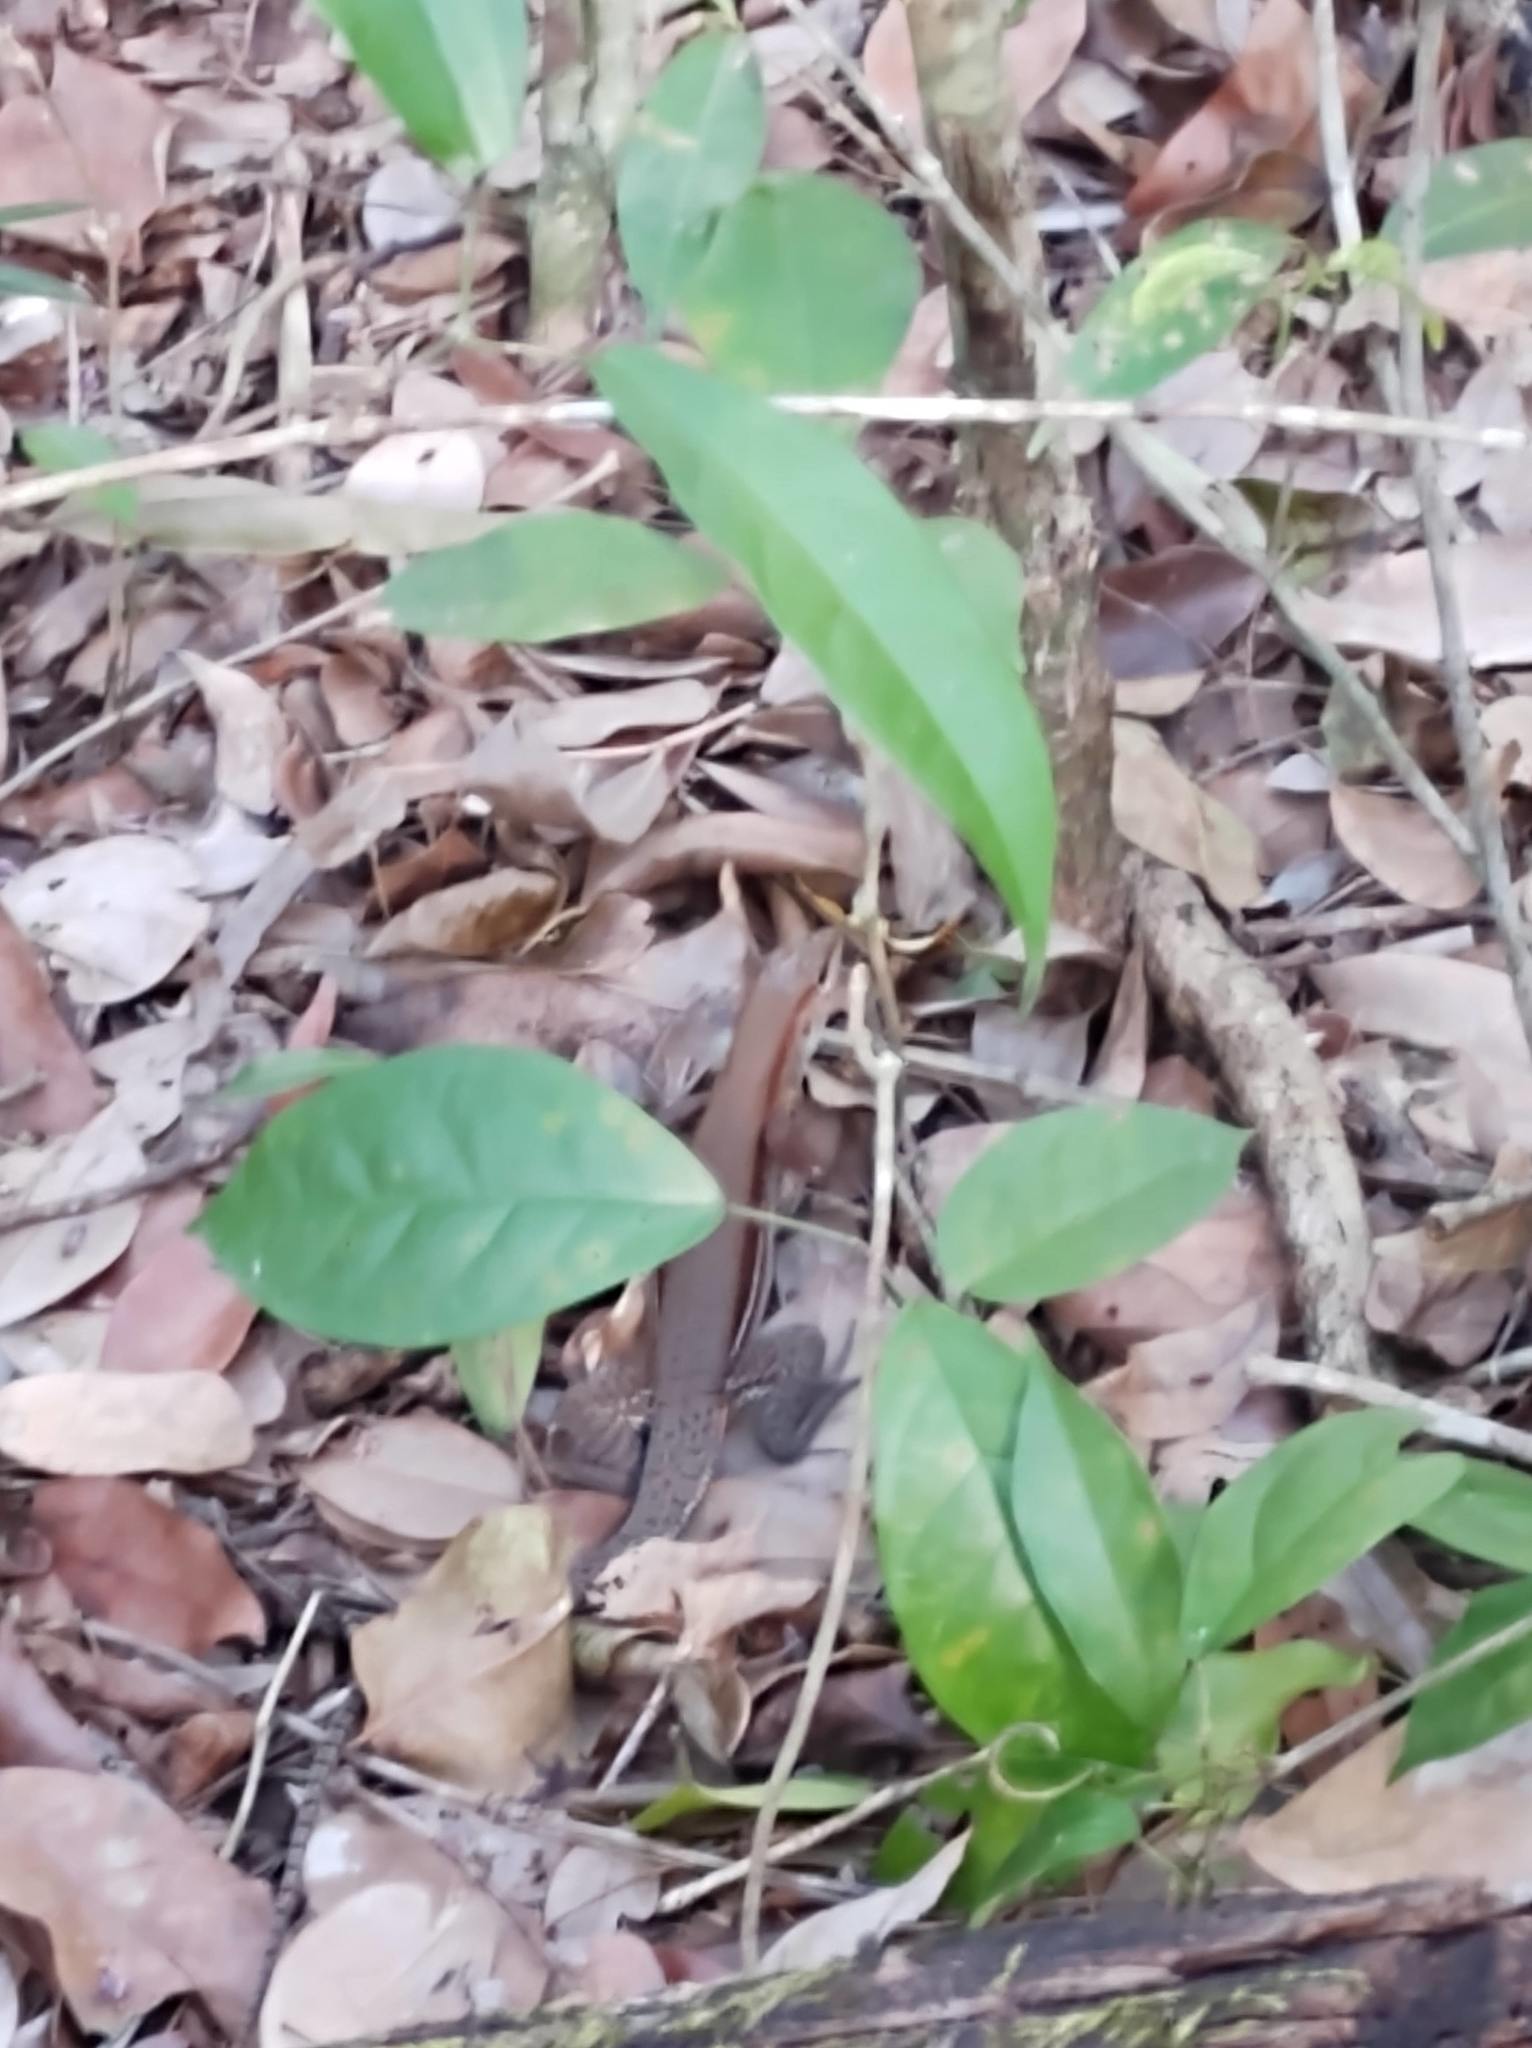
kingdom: Animalia
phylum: Chordata
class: Squamata
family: Teiidae
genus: Holcosus
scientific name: Holcosus gaigeae
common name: Rainbow ameiva
